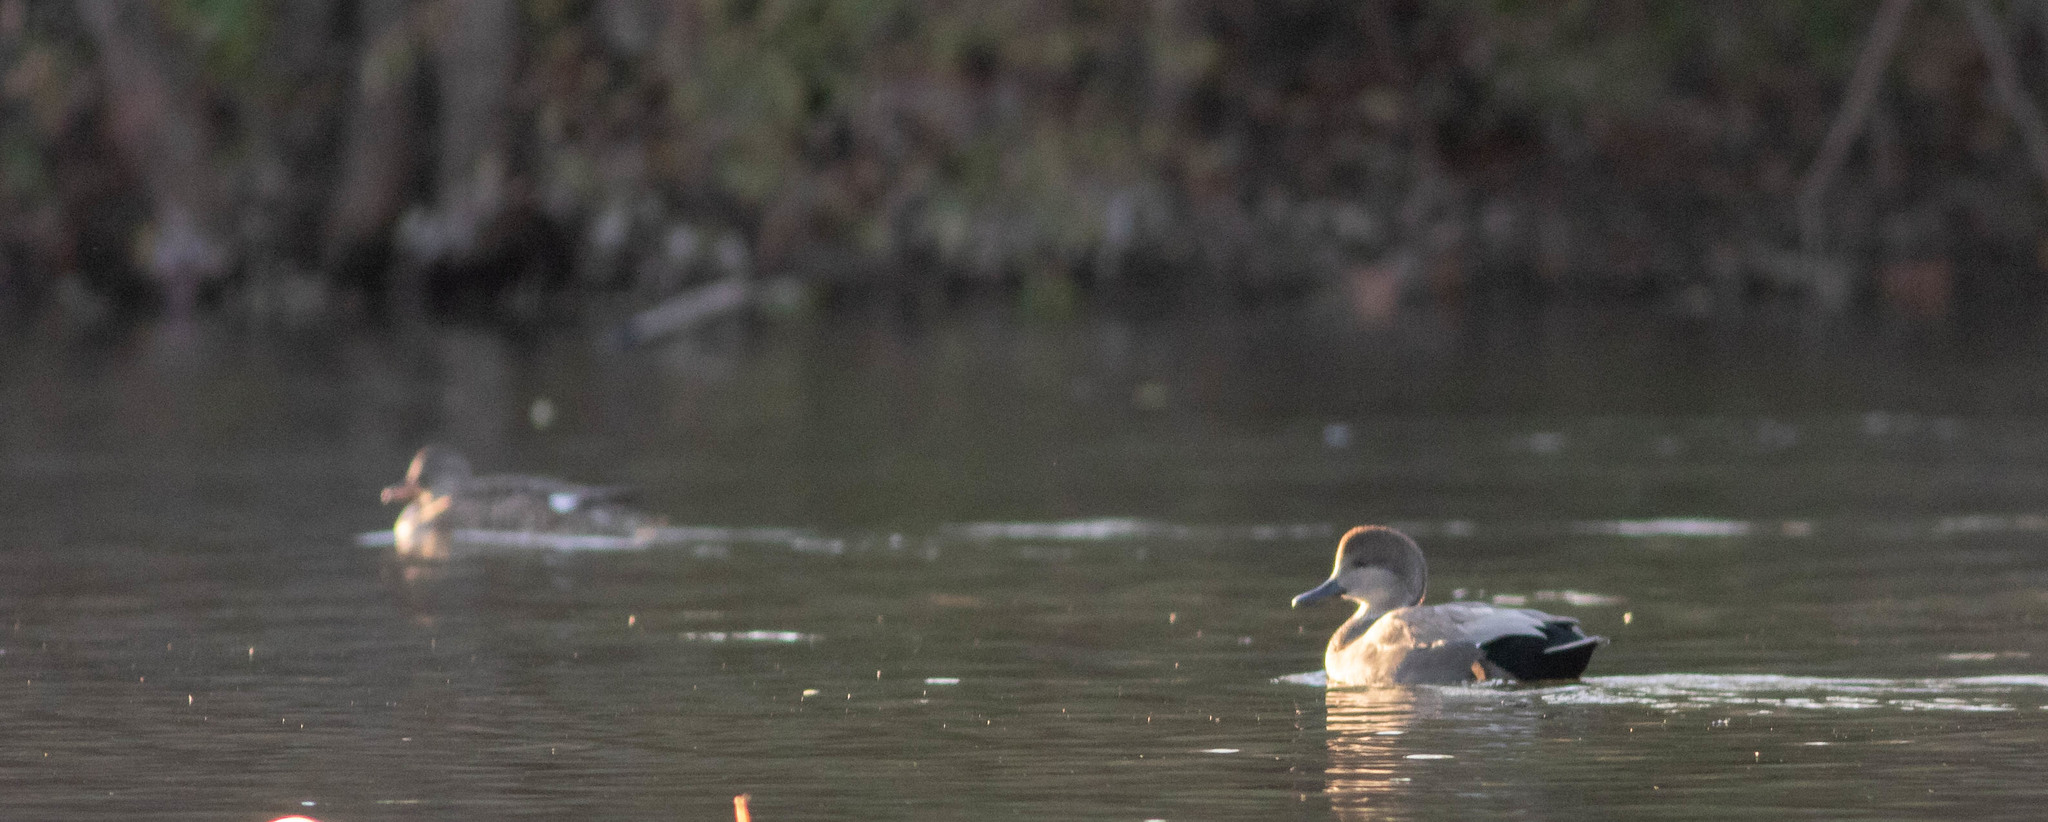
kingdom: Animalia
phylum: Chordata
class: Aves
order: Anseriformes
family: Anatidae
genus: Mareca
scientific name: Mareca strepera
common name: Gadwall
